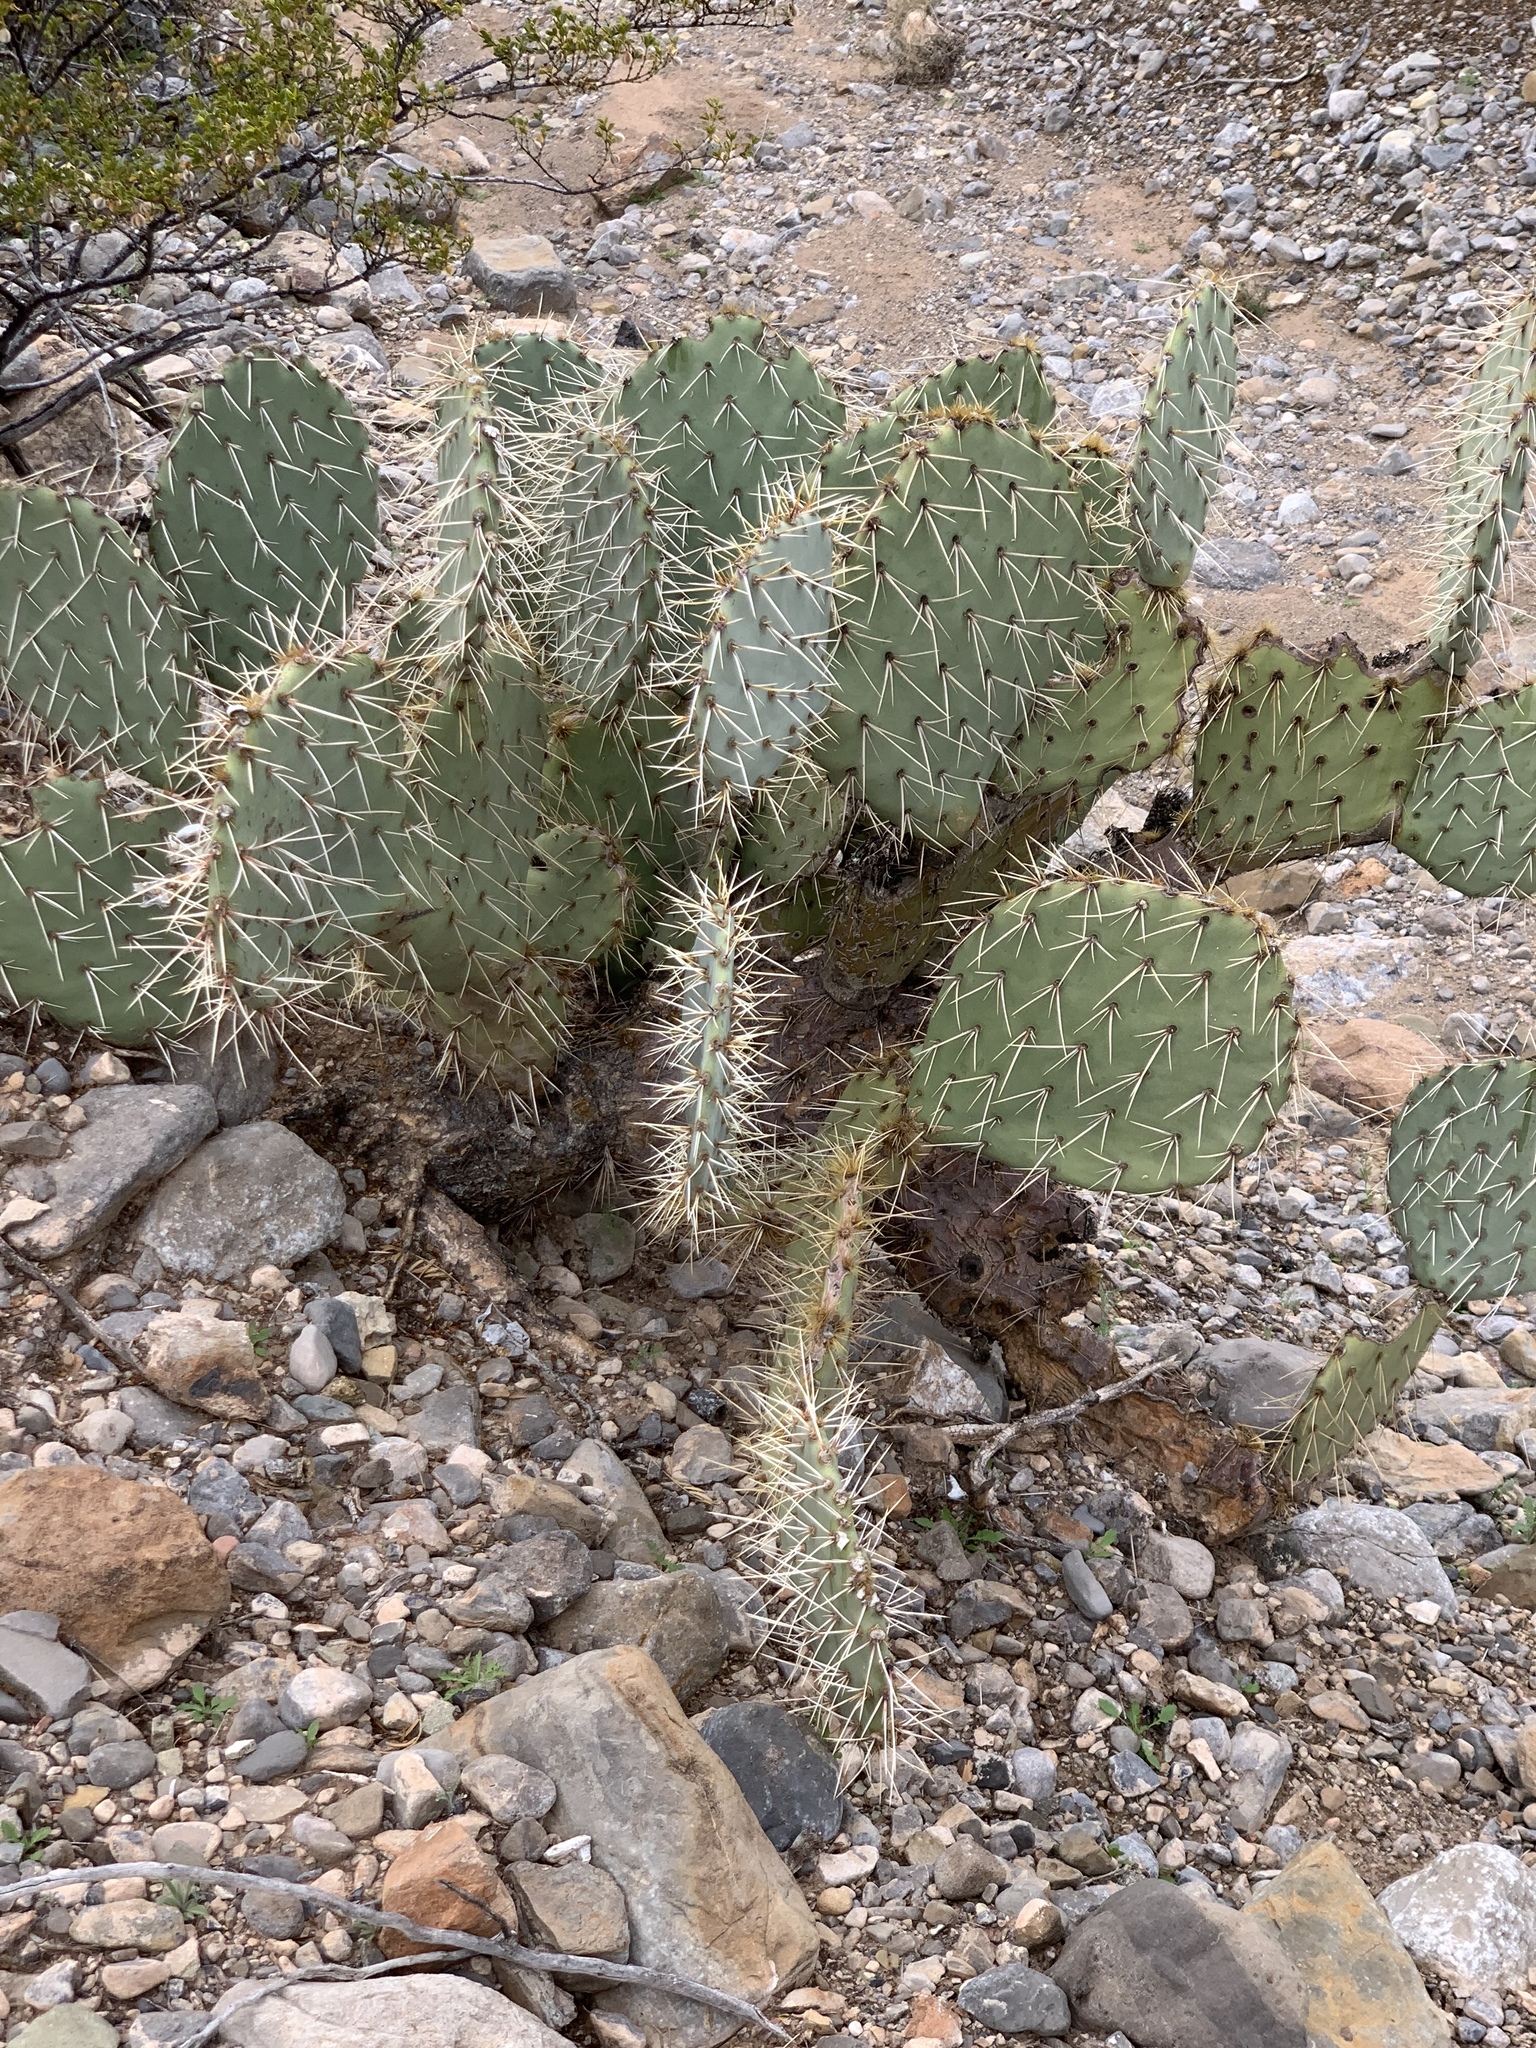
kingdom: Plantae
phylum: Tracheophyta
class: Magnoliopsida
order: Caryophyllales
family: Cactaceae
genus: Opuntia
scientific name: Opuntia phaeacantha
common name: New mexico prickly-pear
